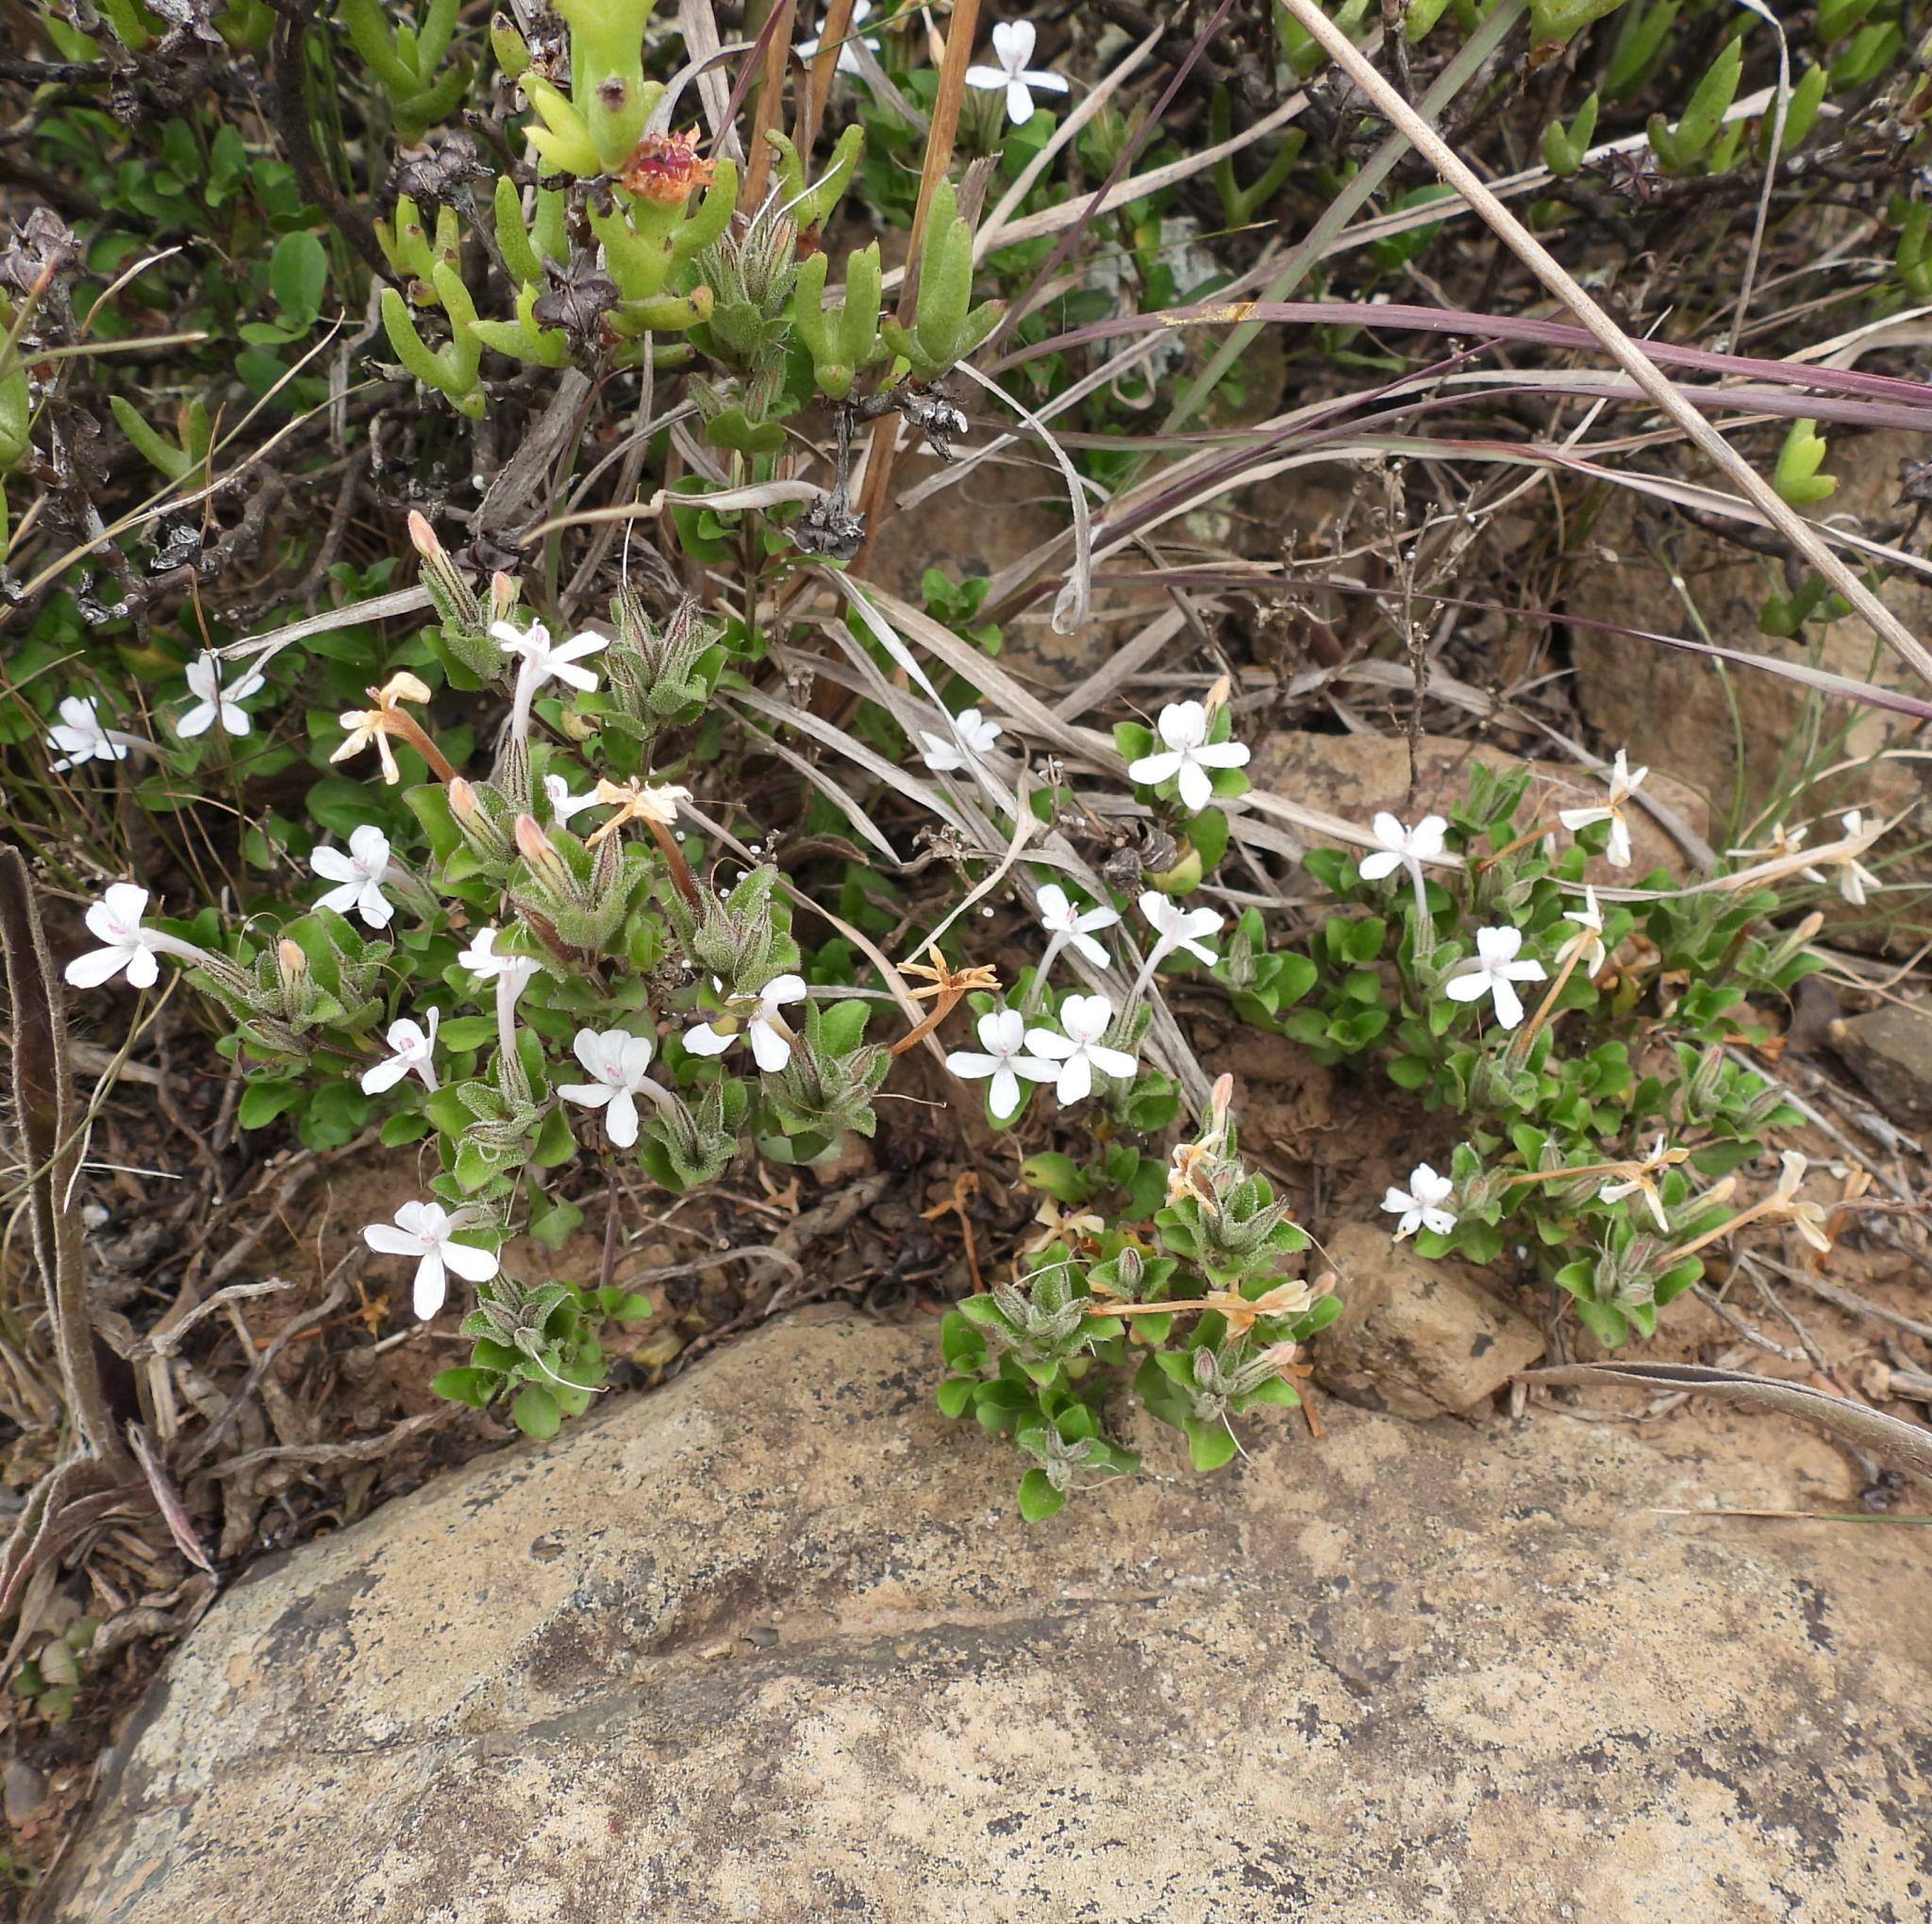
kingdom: Plantae
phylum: Tracheophyta
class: Magnoliopsida
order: Lamiales
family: Acanthaceae
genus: Dyschoriste
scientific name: Dyschoriste setigera
